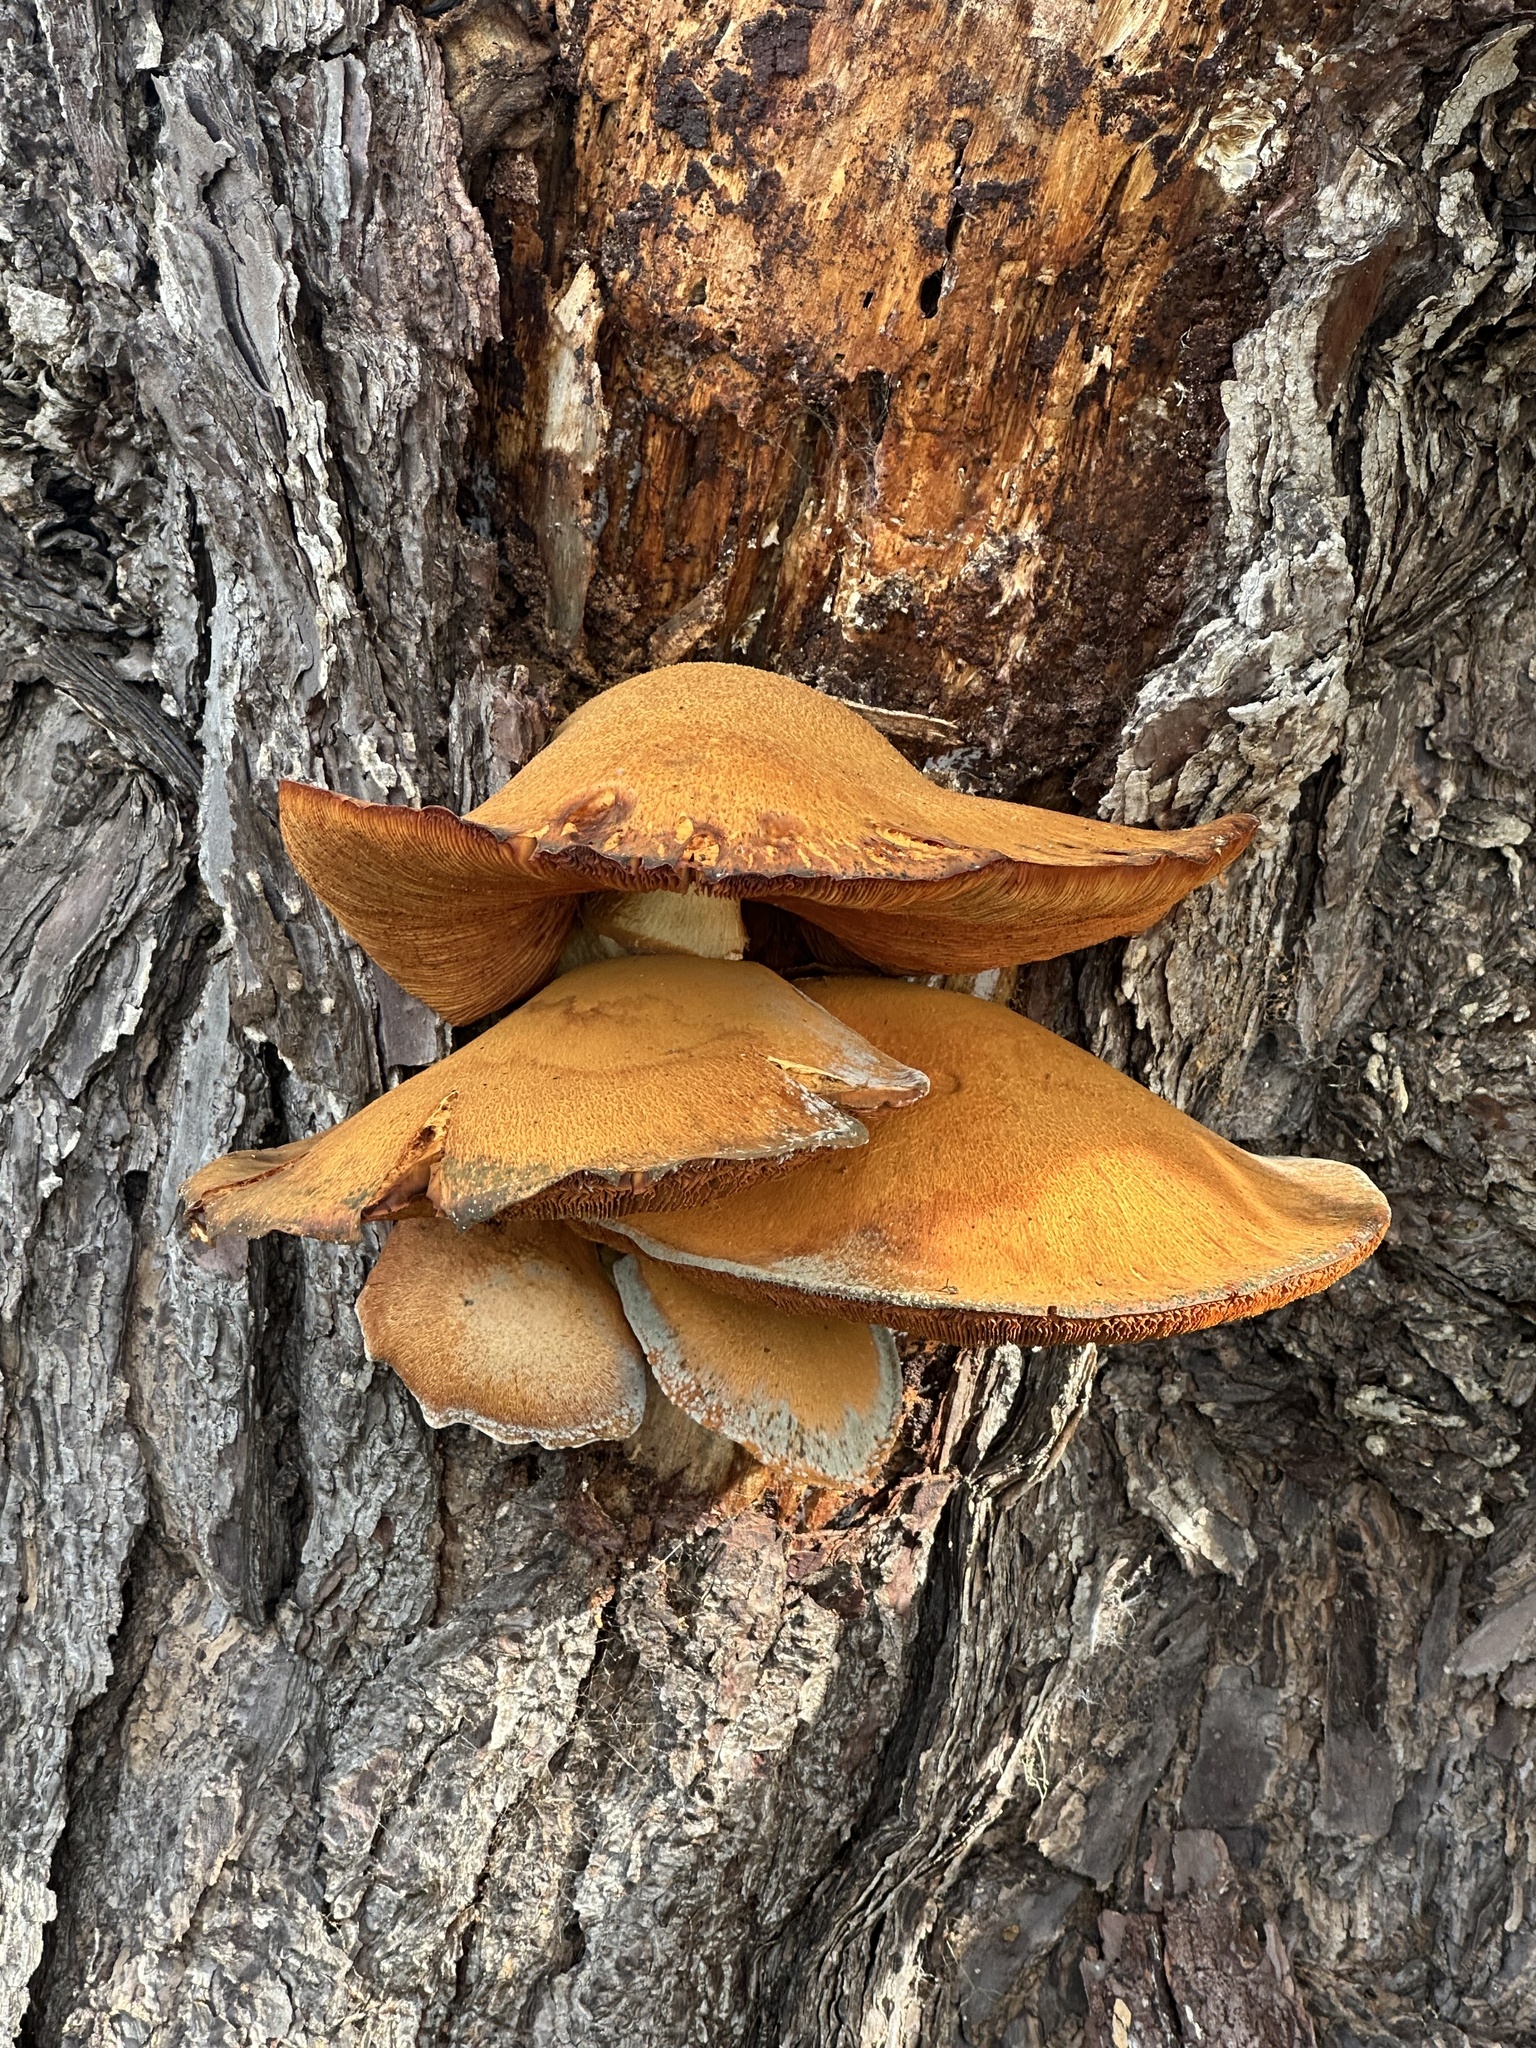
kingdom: Fungi
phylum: Basidiomycota
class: Agaricomycetes
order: Agaricales
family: Hymenogastraceae
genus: Gymnopilus
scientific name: Gymnopilus ventricosus
